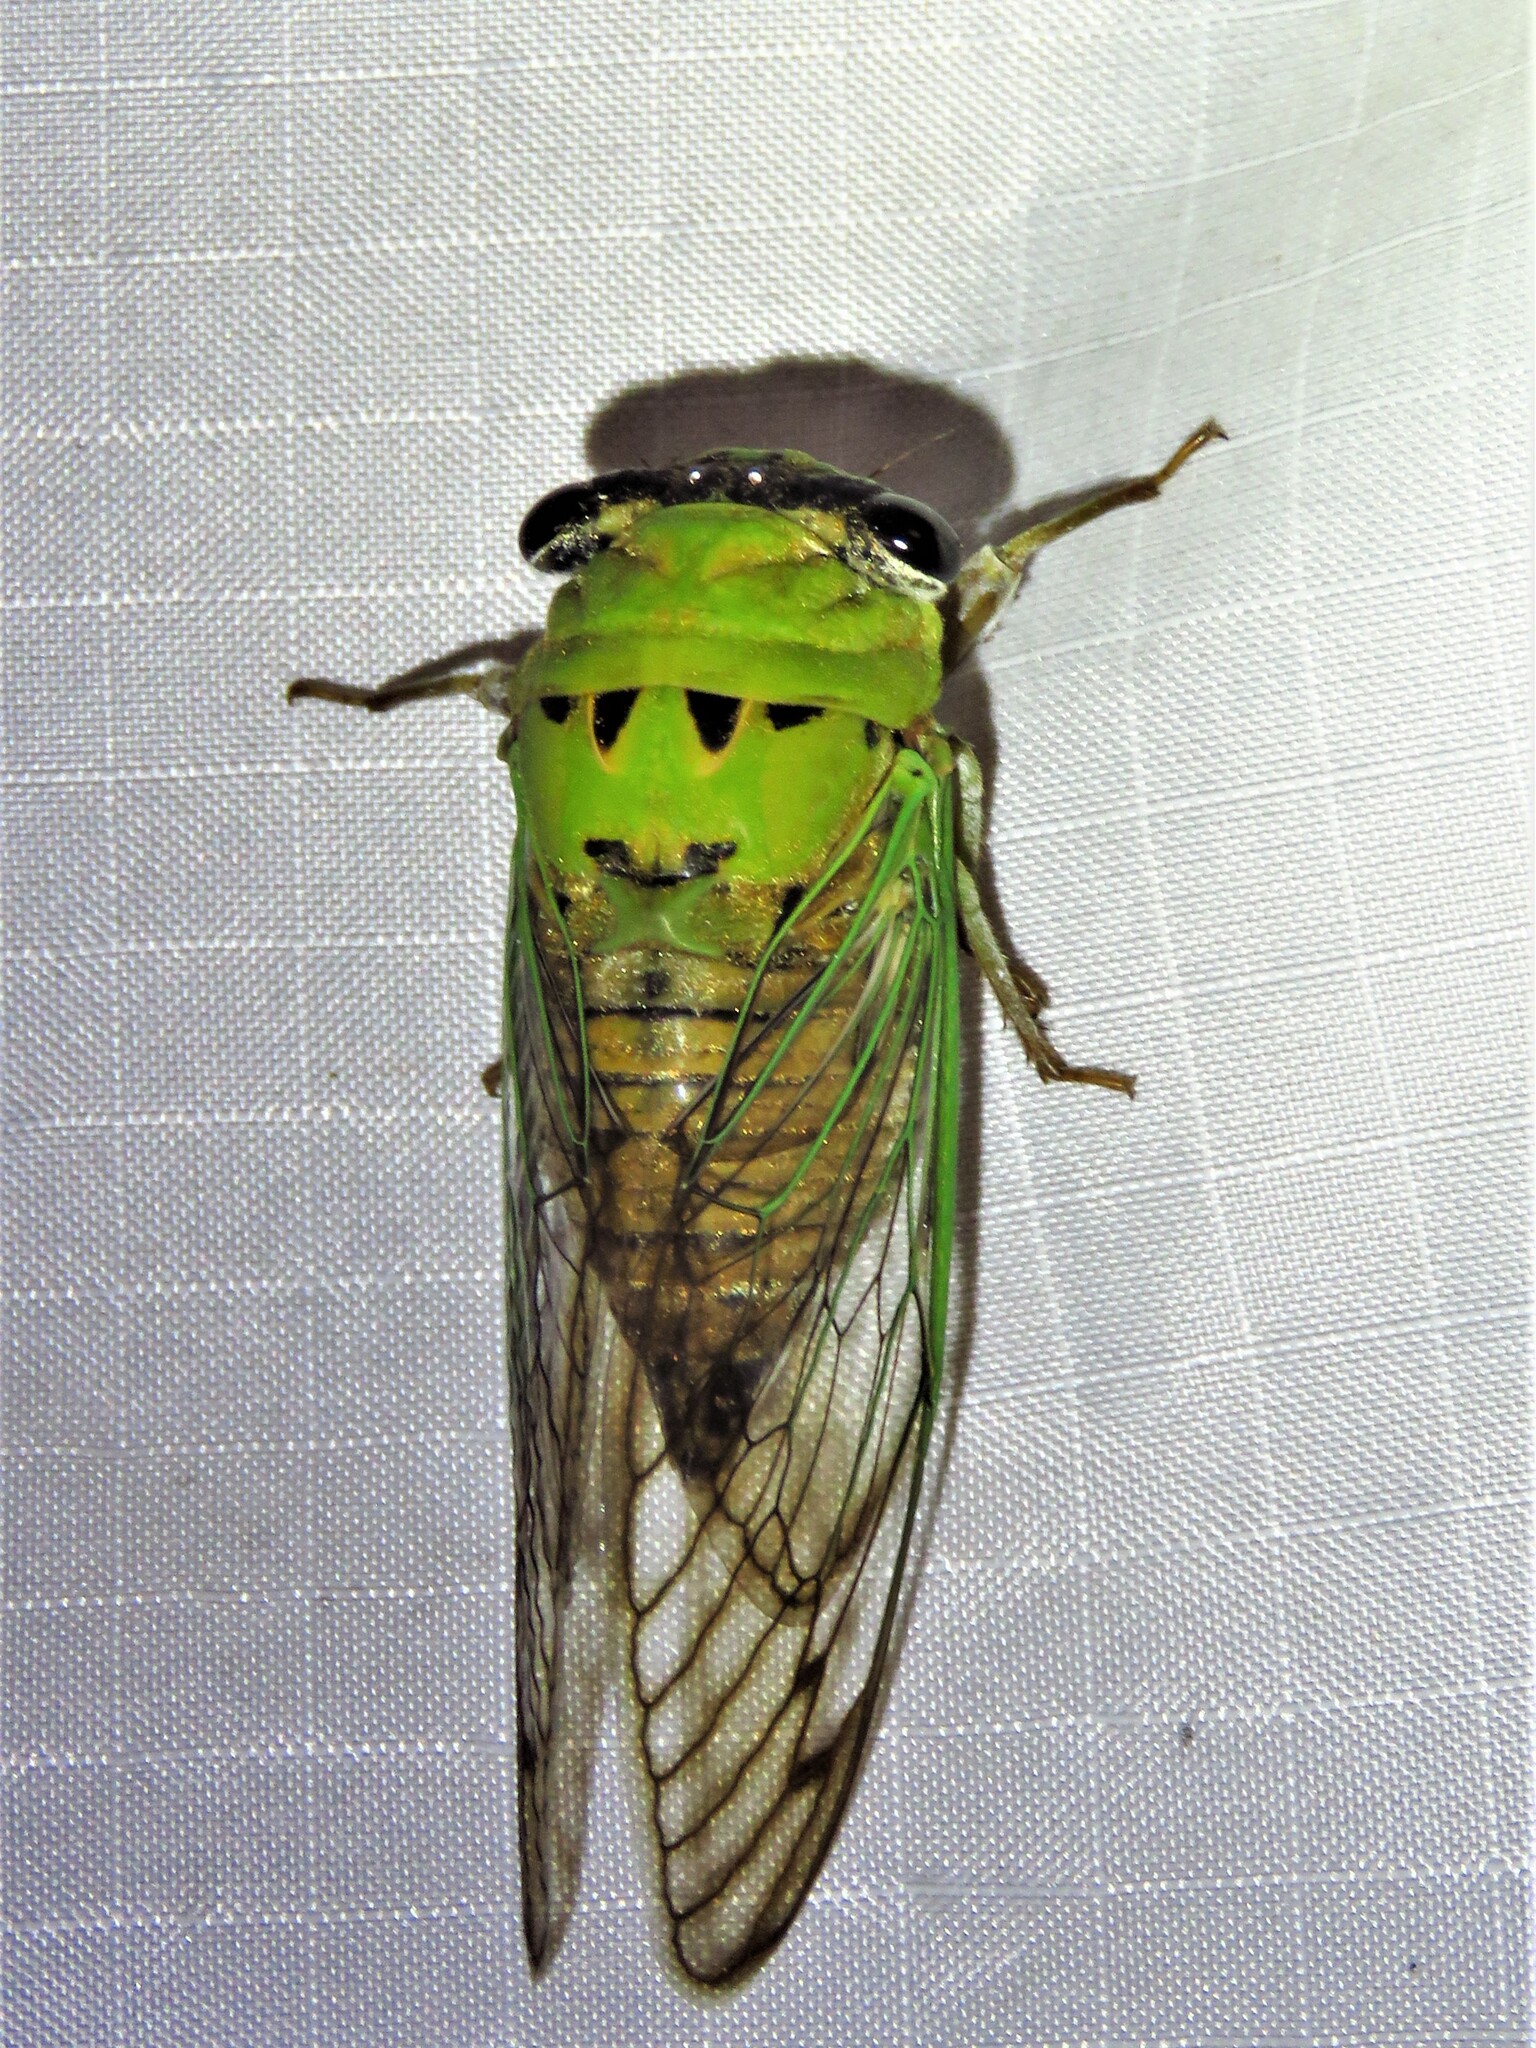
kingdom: Animalia
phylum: Arthropoda
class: Insecta
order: Hemiptera
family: Cicadidae
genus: Neotibicen
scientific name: Neotibicen superbus
